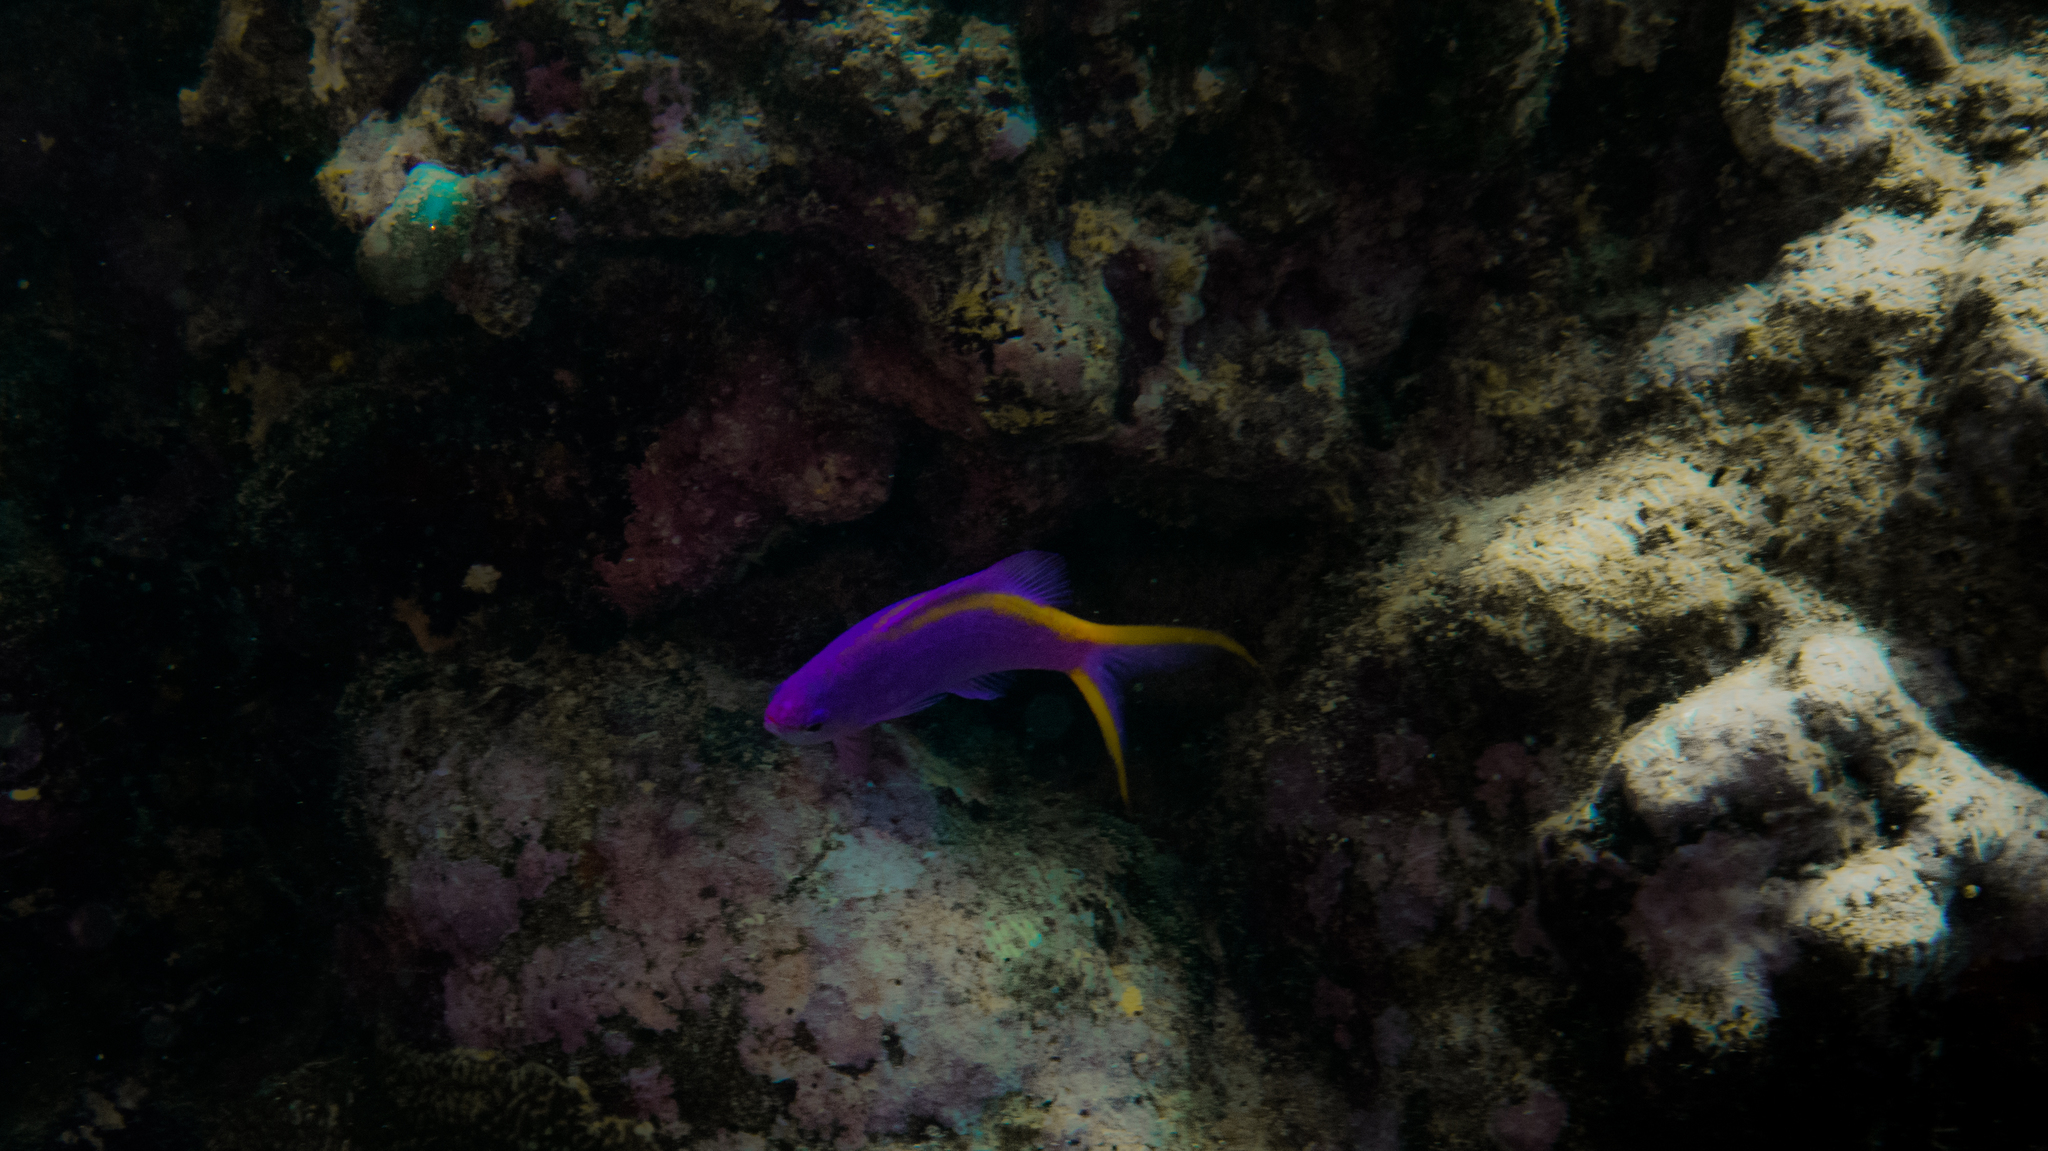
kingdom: Animalia
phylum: Chordata
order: Perciformes
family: Serranidae
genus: Pseudanthias
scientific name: Pseudanthias tuka
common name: Purple queen
